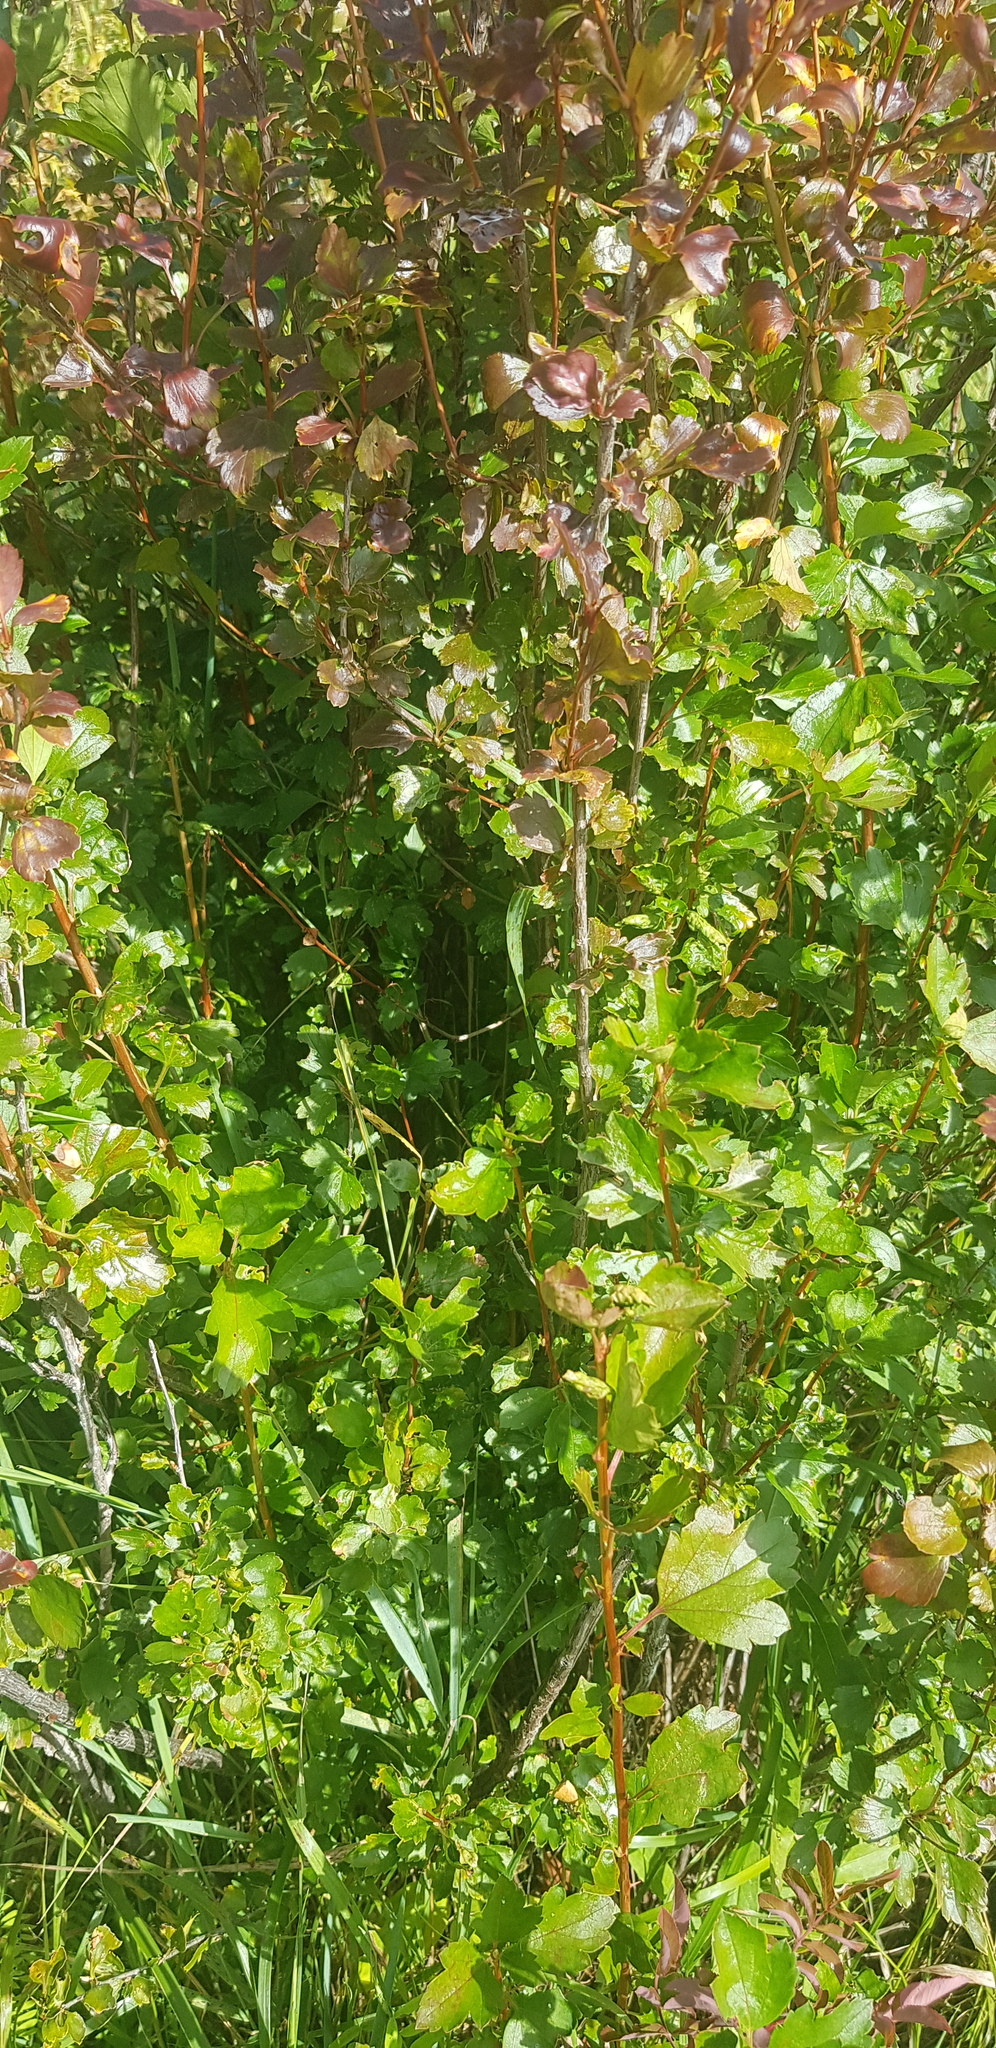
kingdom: Plantae
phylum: Tracheophyta
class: Magnoliopsida
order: Saxifragales
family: Grossulariaceae
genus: Ribes
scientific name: Ribes diacanthum
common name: Siberian currant
